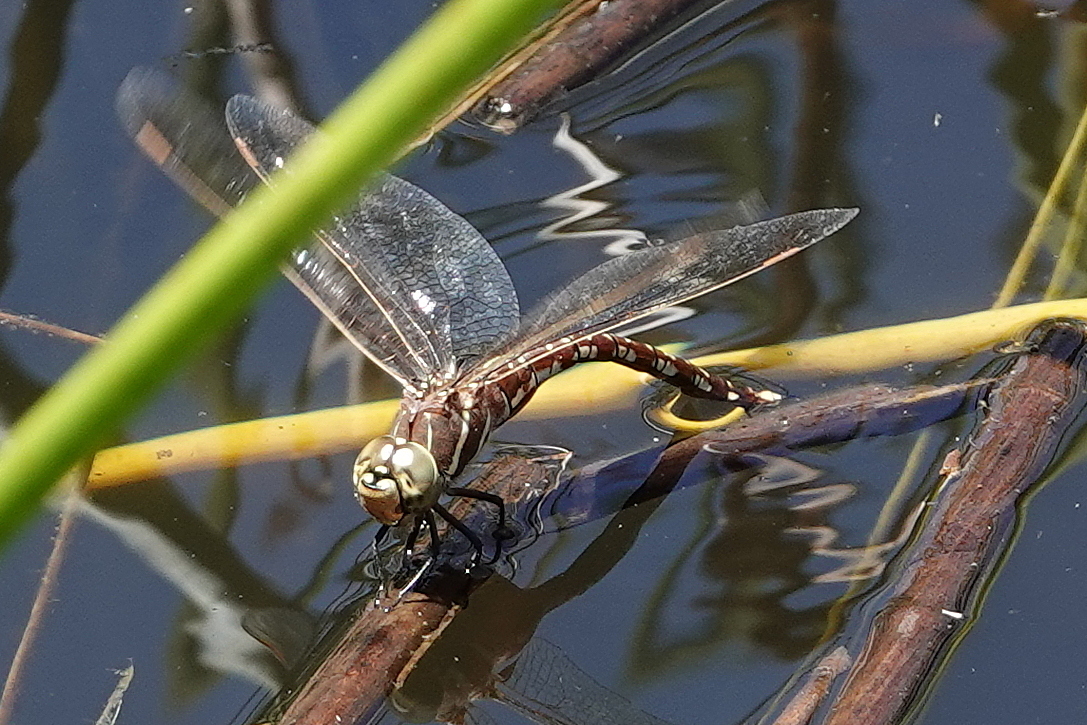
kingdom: Animalia
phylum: Arthropoda
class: Insecta
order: Odonata
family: Aeshnidae
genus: Aeshna
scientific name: Aeshna brevistyla
